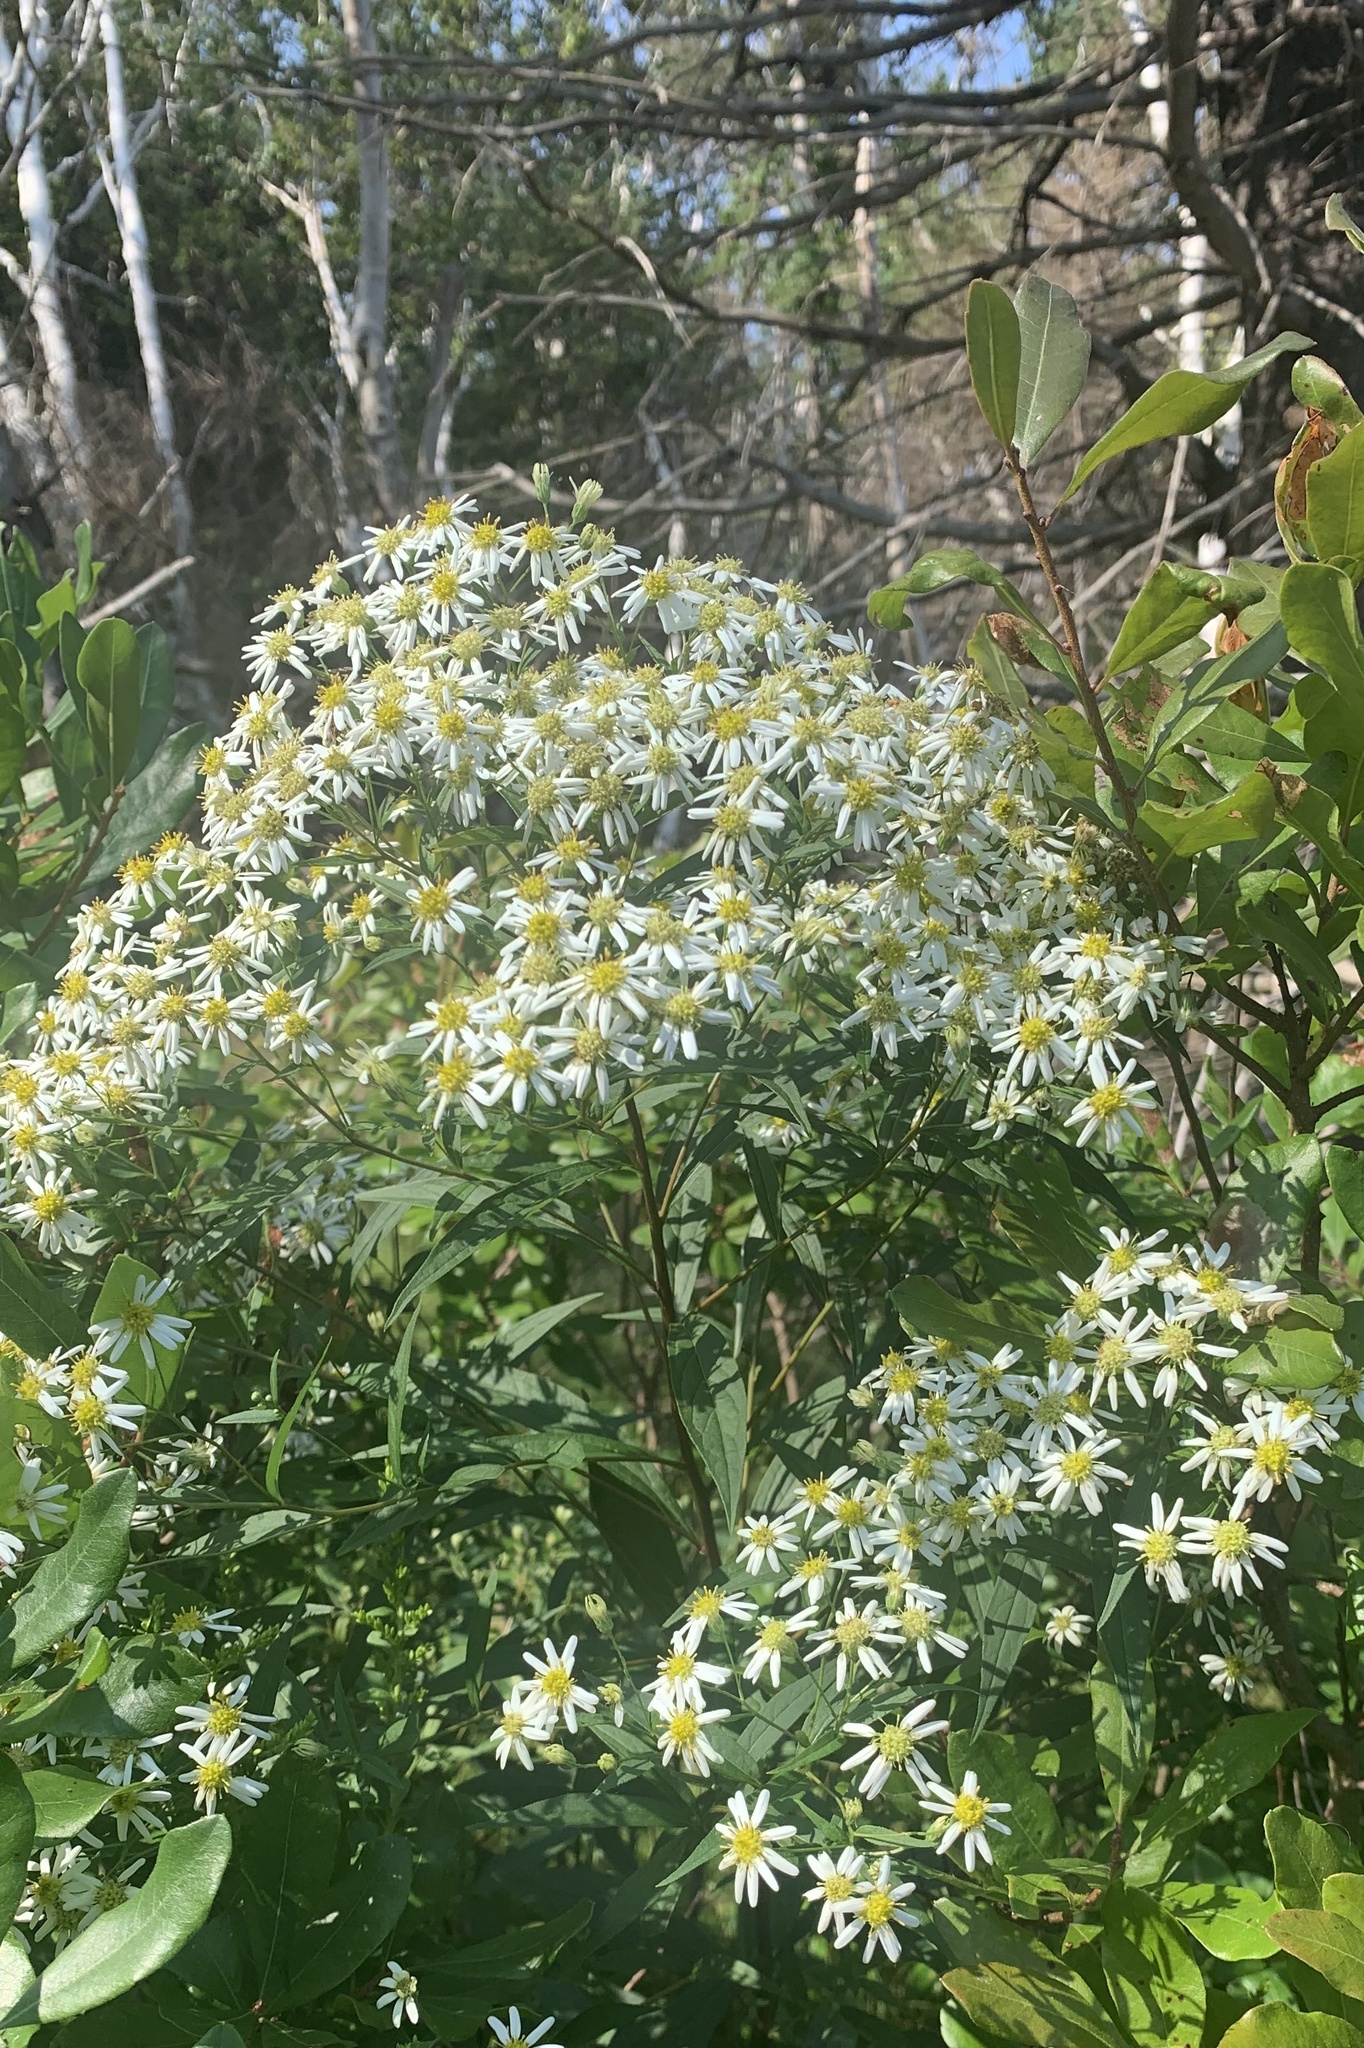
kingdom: Plantae
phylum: Tracheophyta
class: Magnoliopsida
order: Asterales
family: Asteraceae
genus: Doellingeria
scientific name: Doellingeria umbellata
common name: Flat-top white aster
